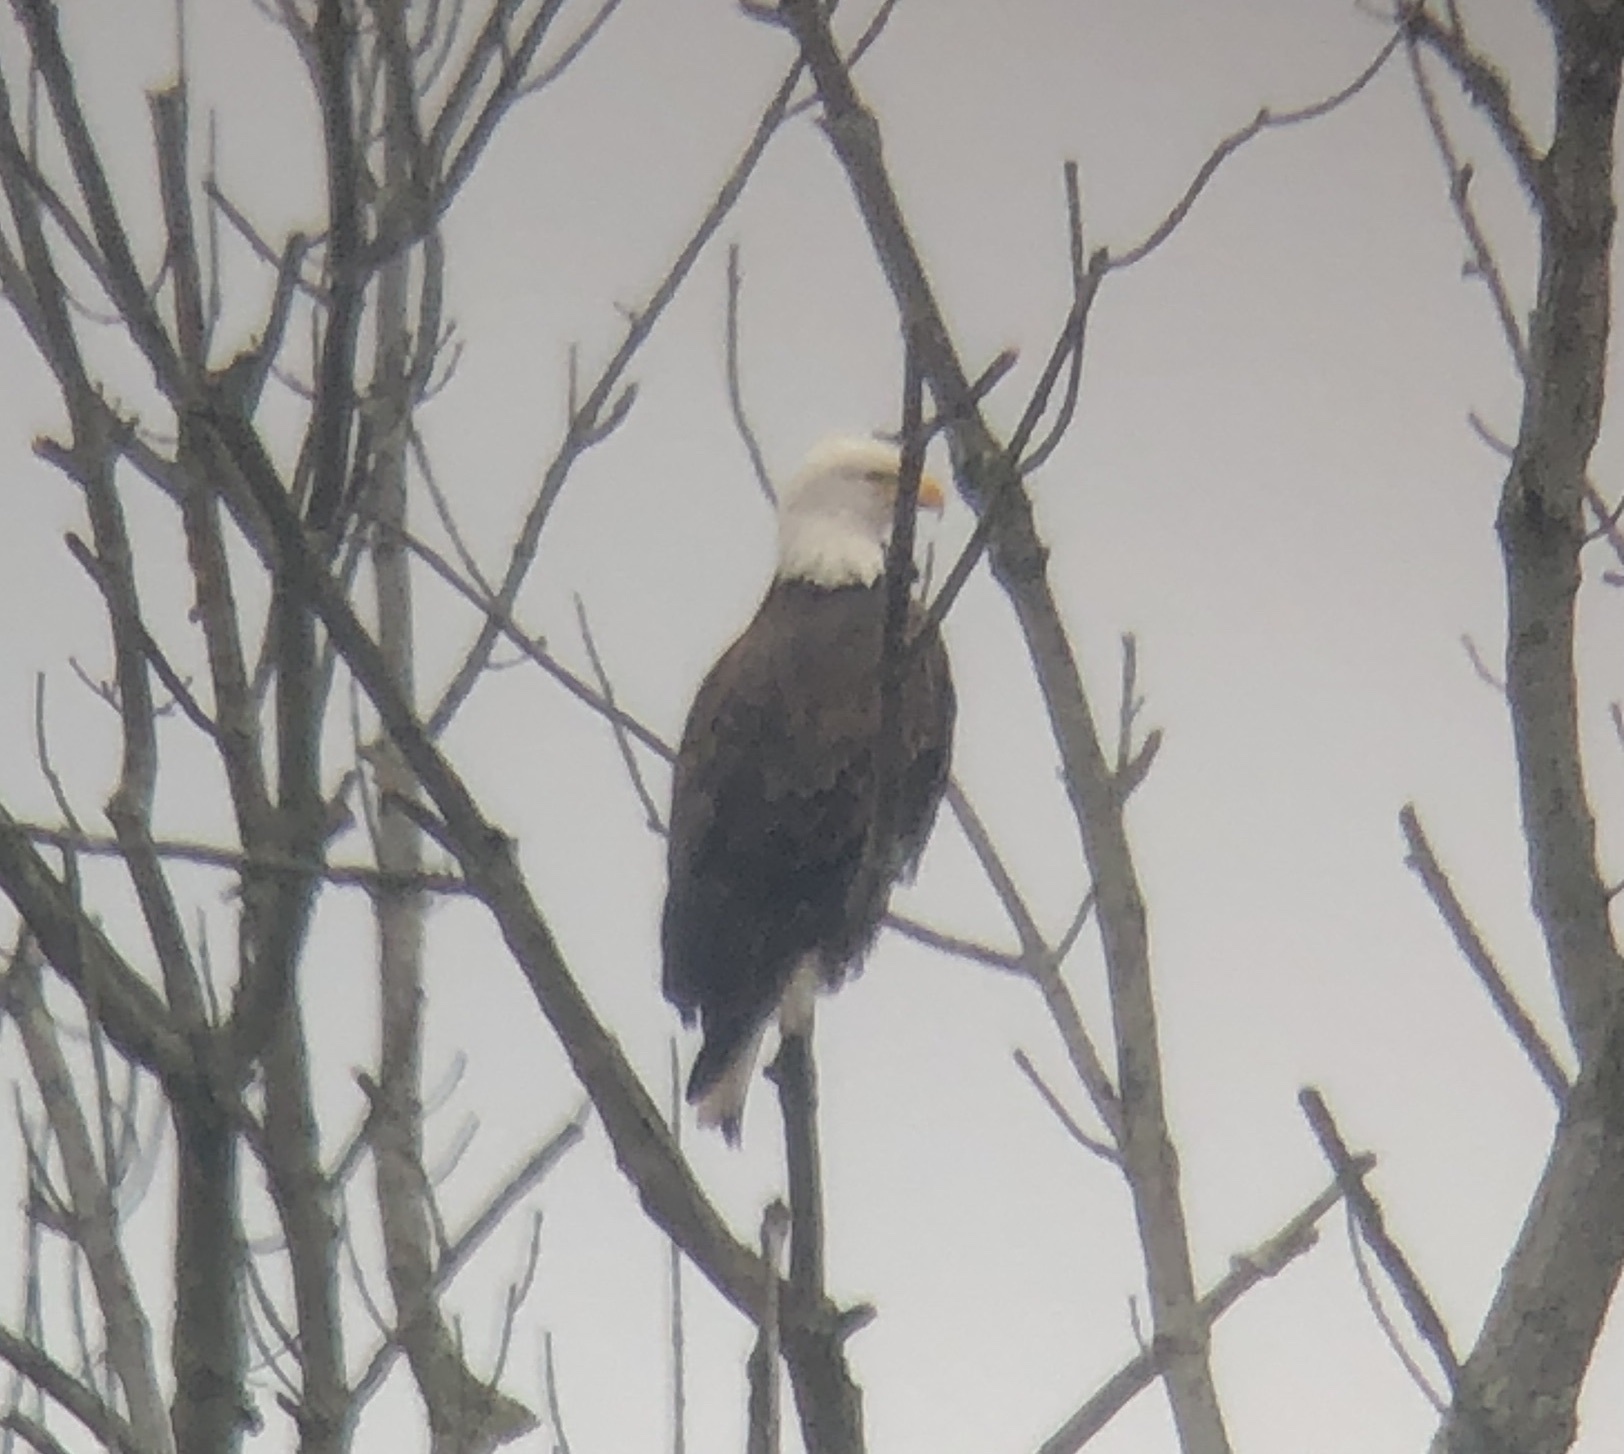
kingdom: Animalia
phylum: Chordata
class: Aves
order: Accipitriformes
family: Accipitridae
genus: Haliaeetus
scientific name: Haliaeetus leucocephalus
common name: Bald eagle
